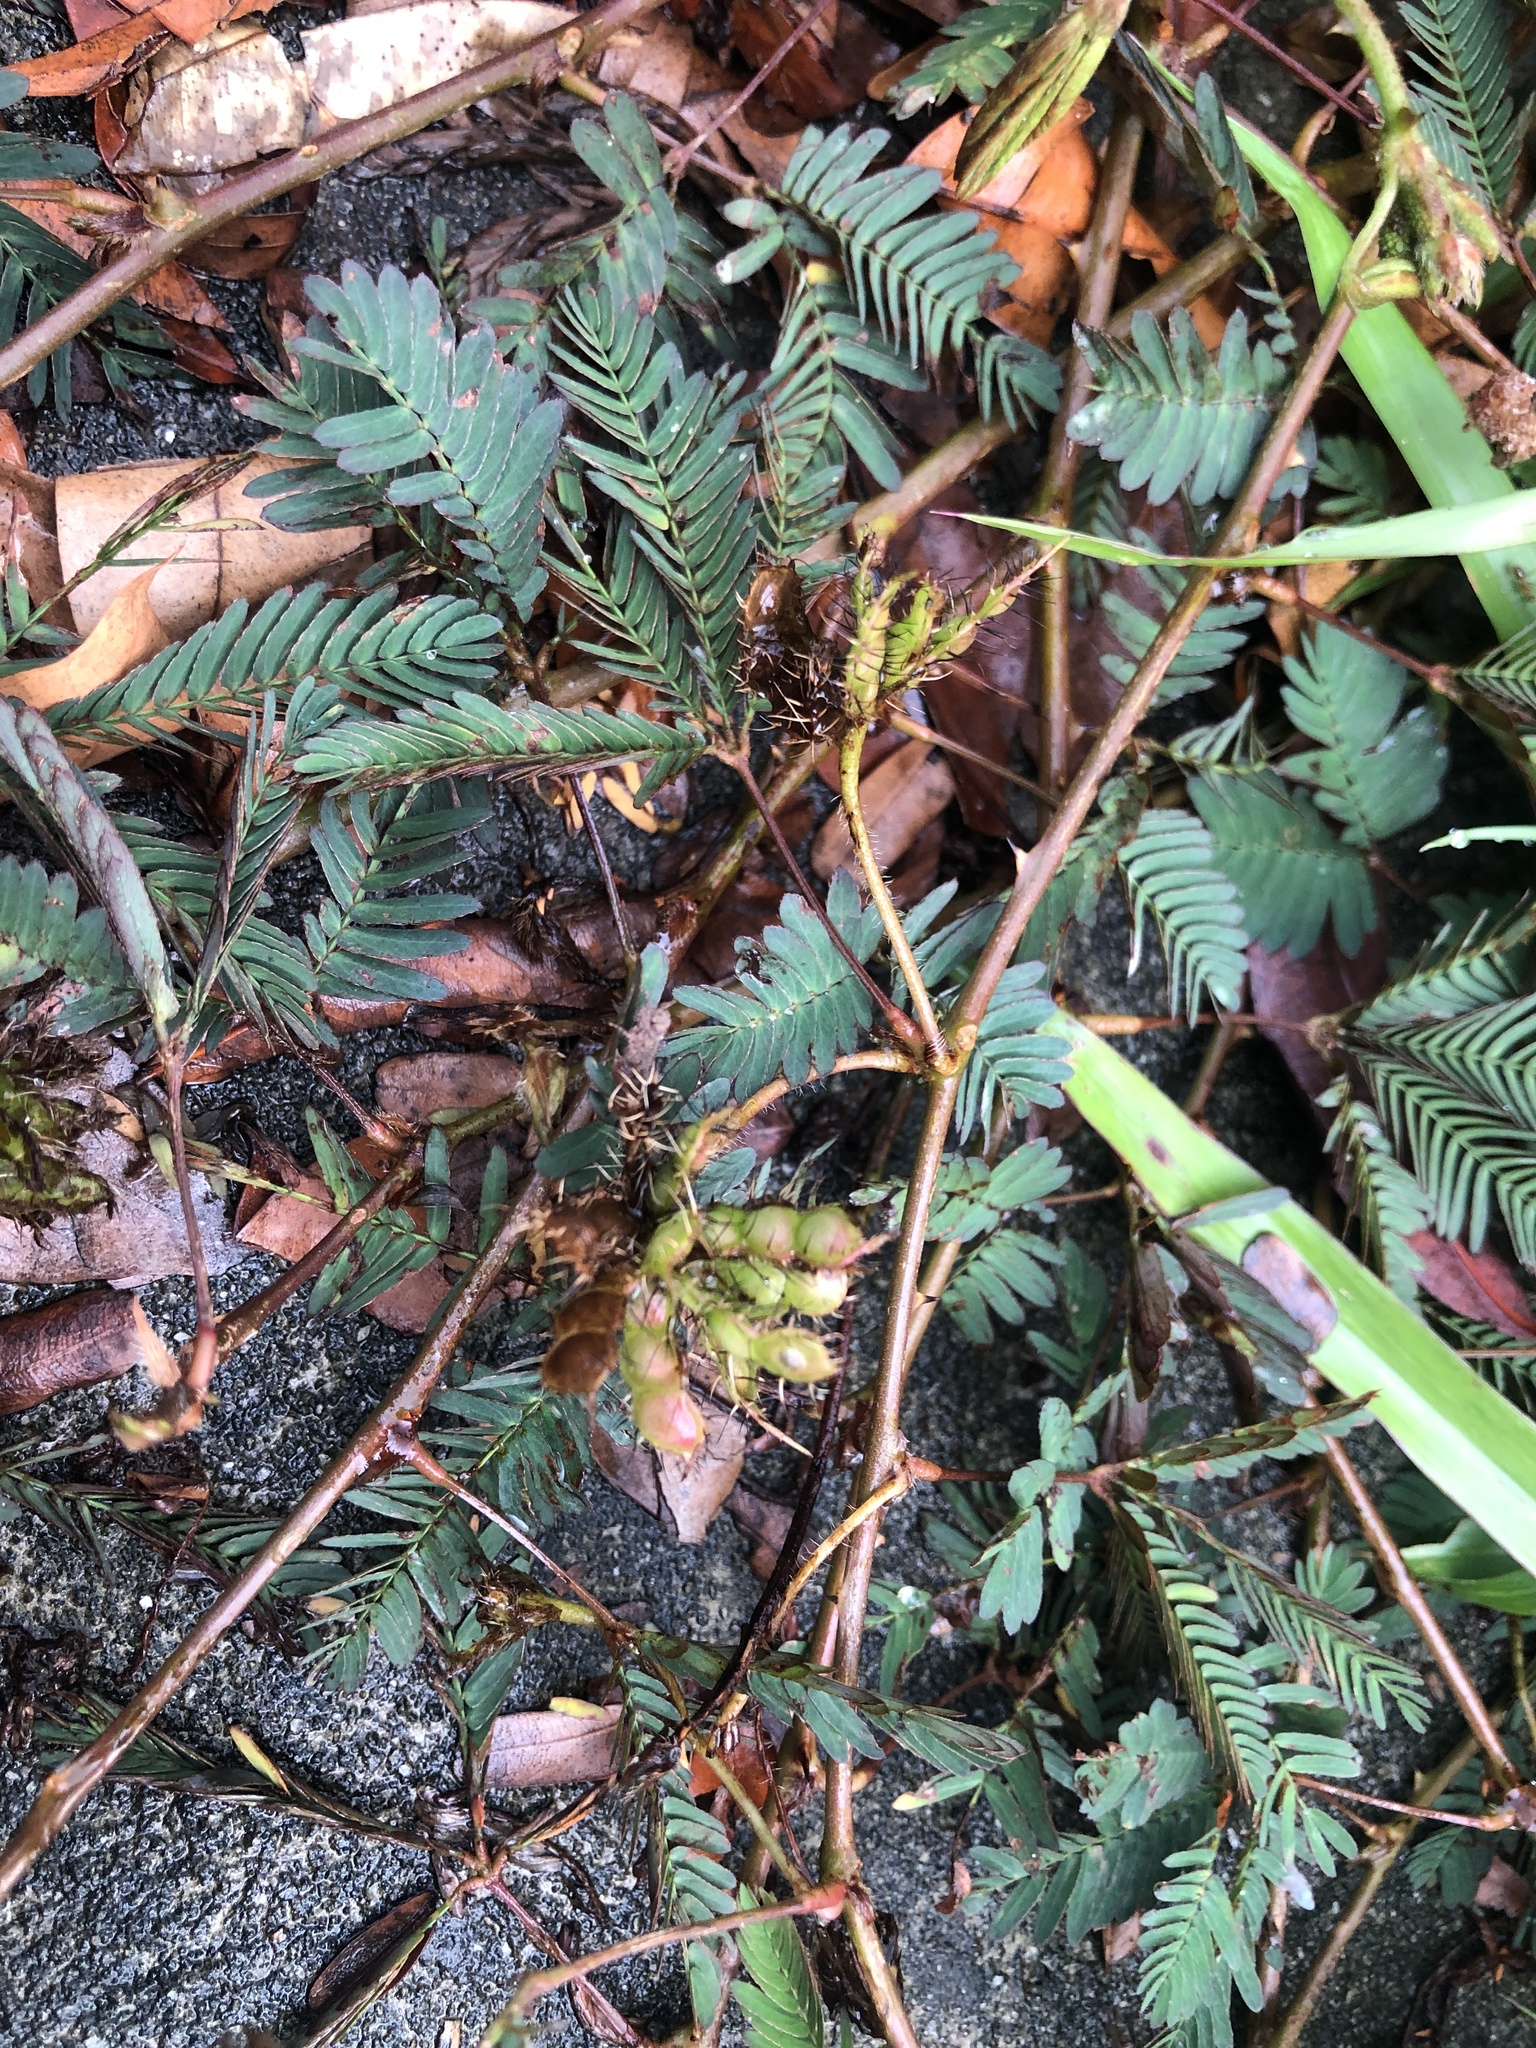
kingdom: Plantae
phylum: Tracheophyta
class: Magnoliopsida
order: Fabales
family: Fabaceae
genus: Mimosa
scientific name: Mimosa pudica
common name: Sensitive plant
